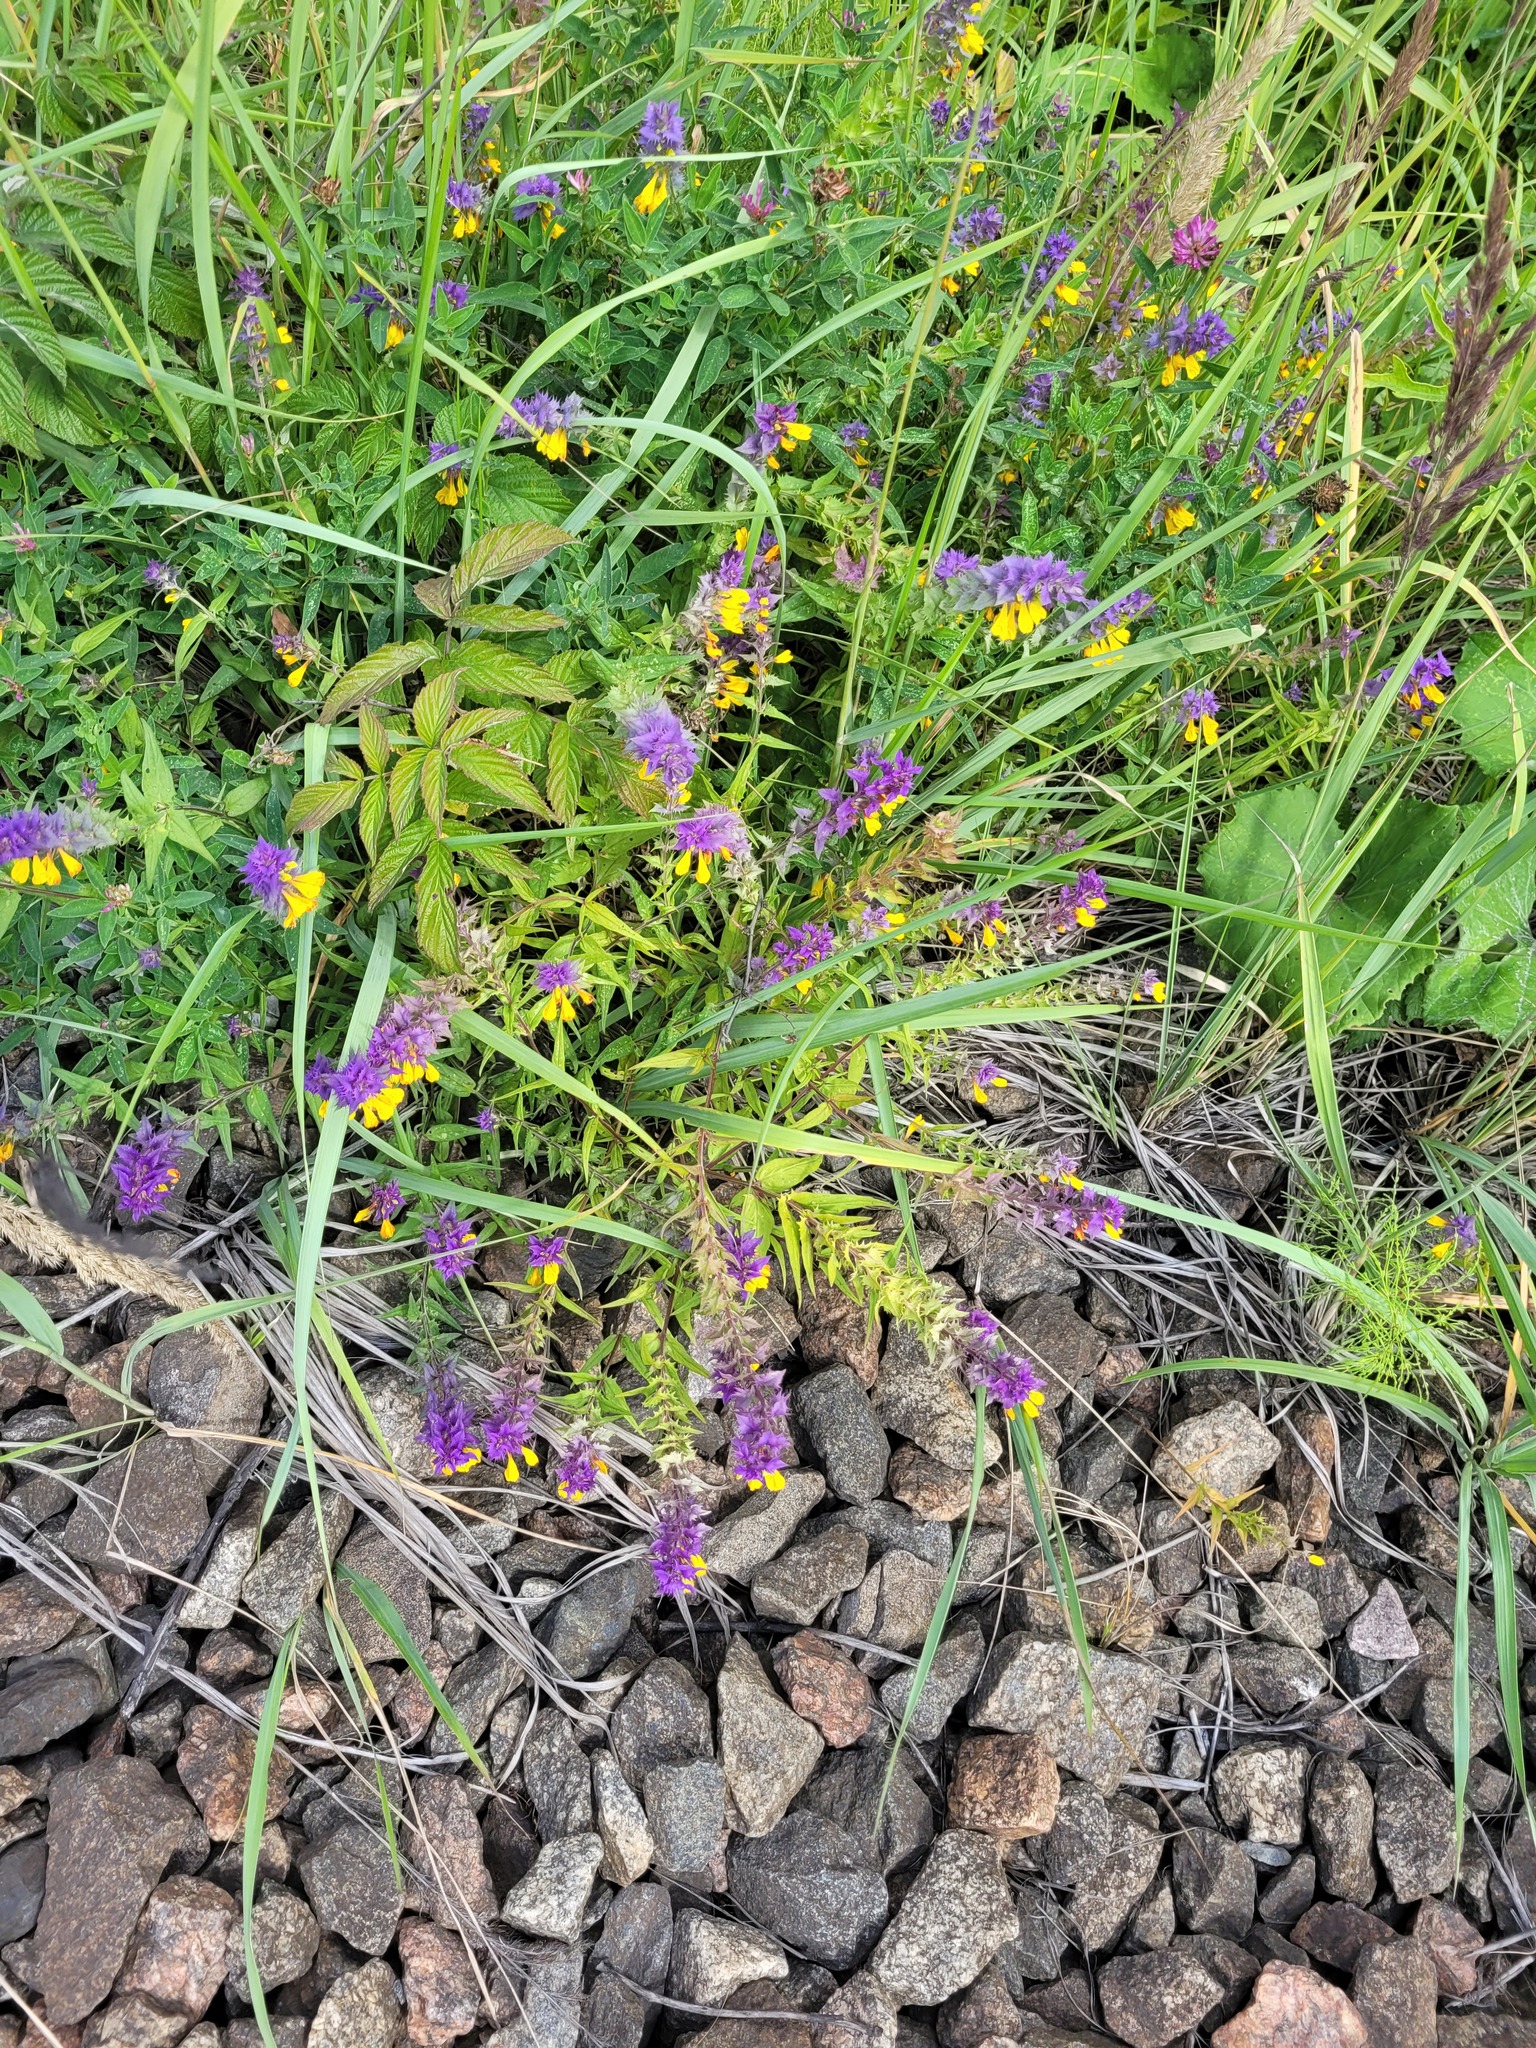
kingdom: Plantae
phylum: Tracheophyta
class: Magnoliopsida
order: Lamiales
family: Orobanchaceae
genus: Melampyrum
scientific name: Melampyrum nemorosum
